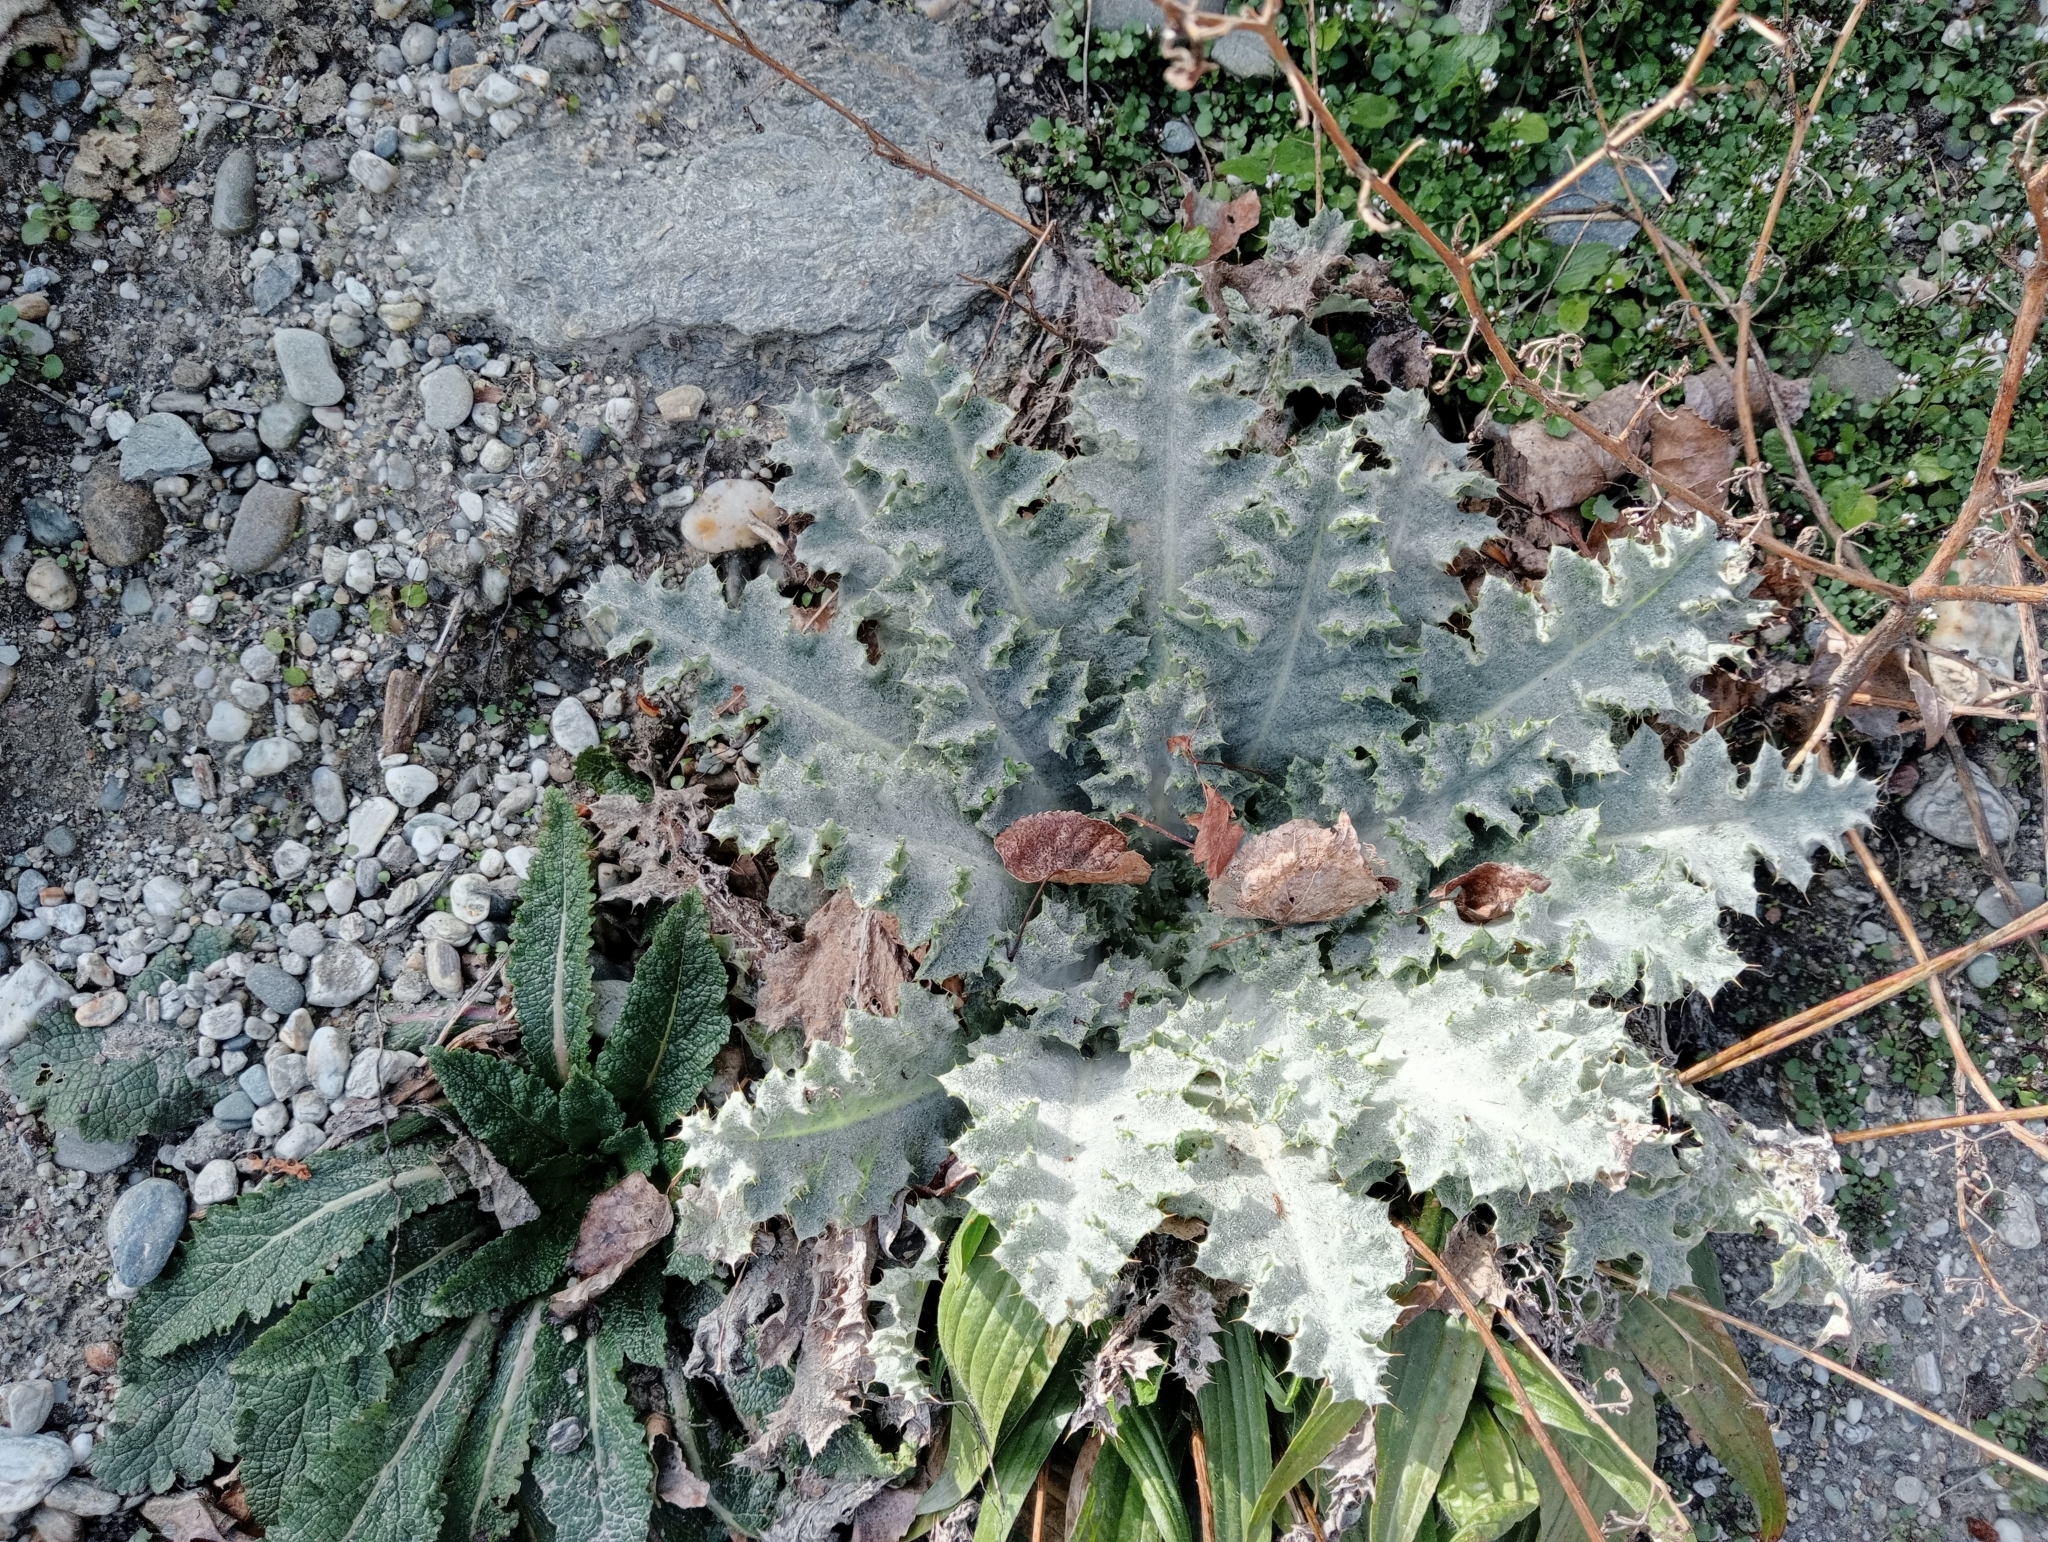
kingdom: Plantae
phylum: Tracheophyta
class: Magnoliopsida
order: Asterales
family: Asteraceae
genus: Onopordum
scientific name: Onopordum acanthium
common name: Scotch thistle
